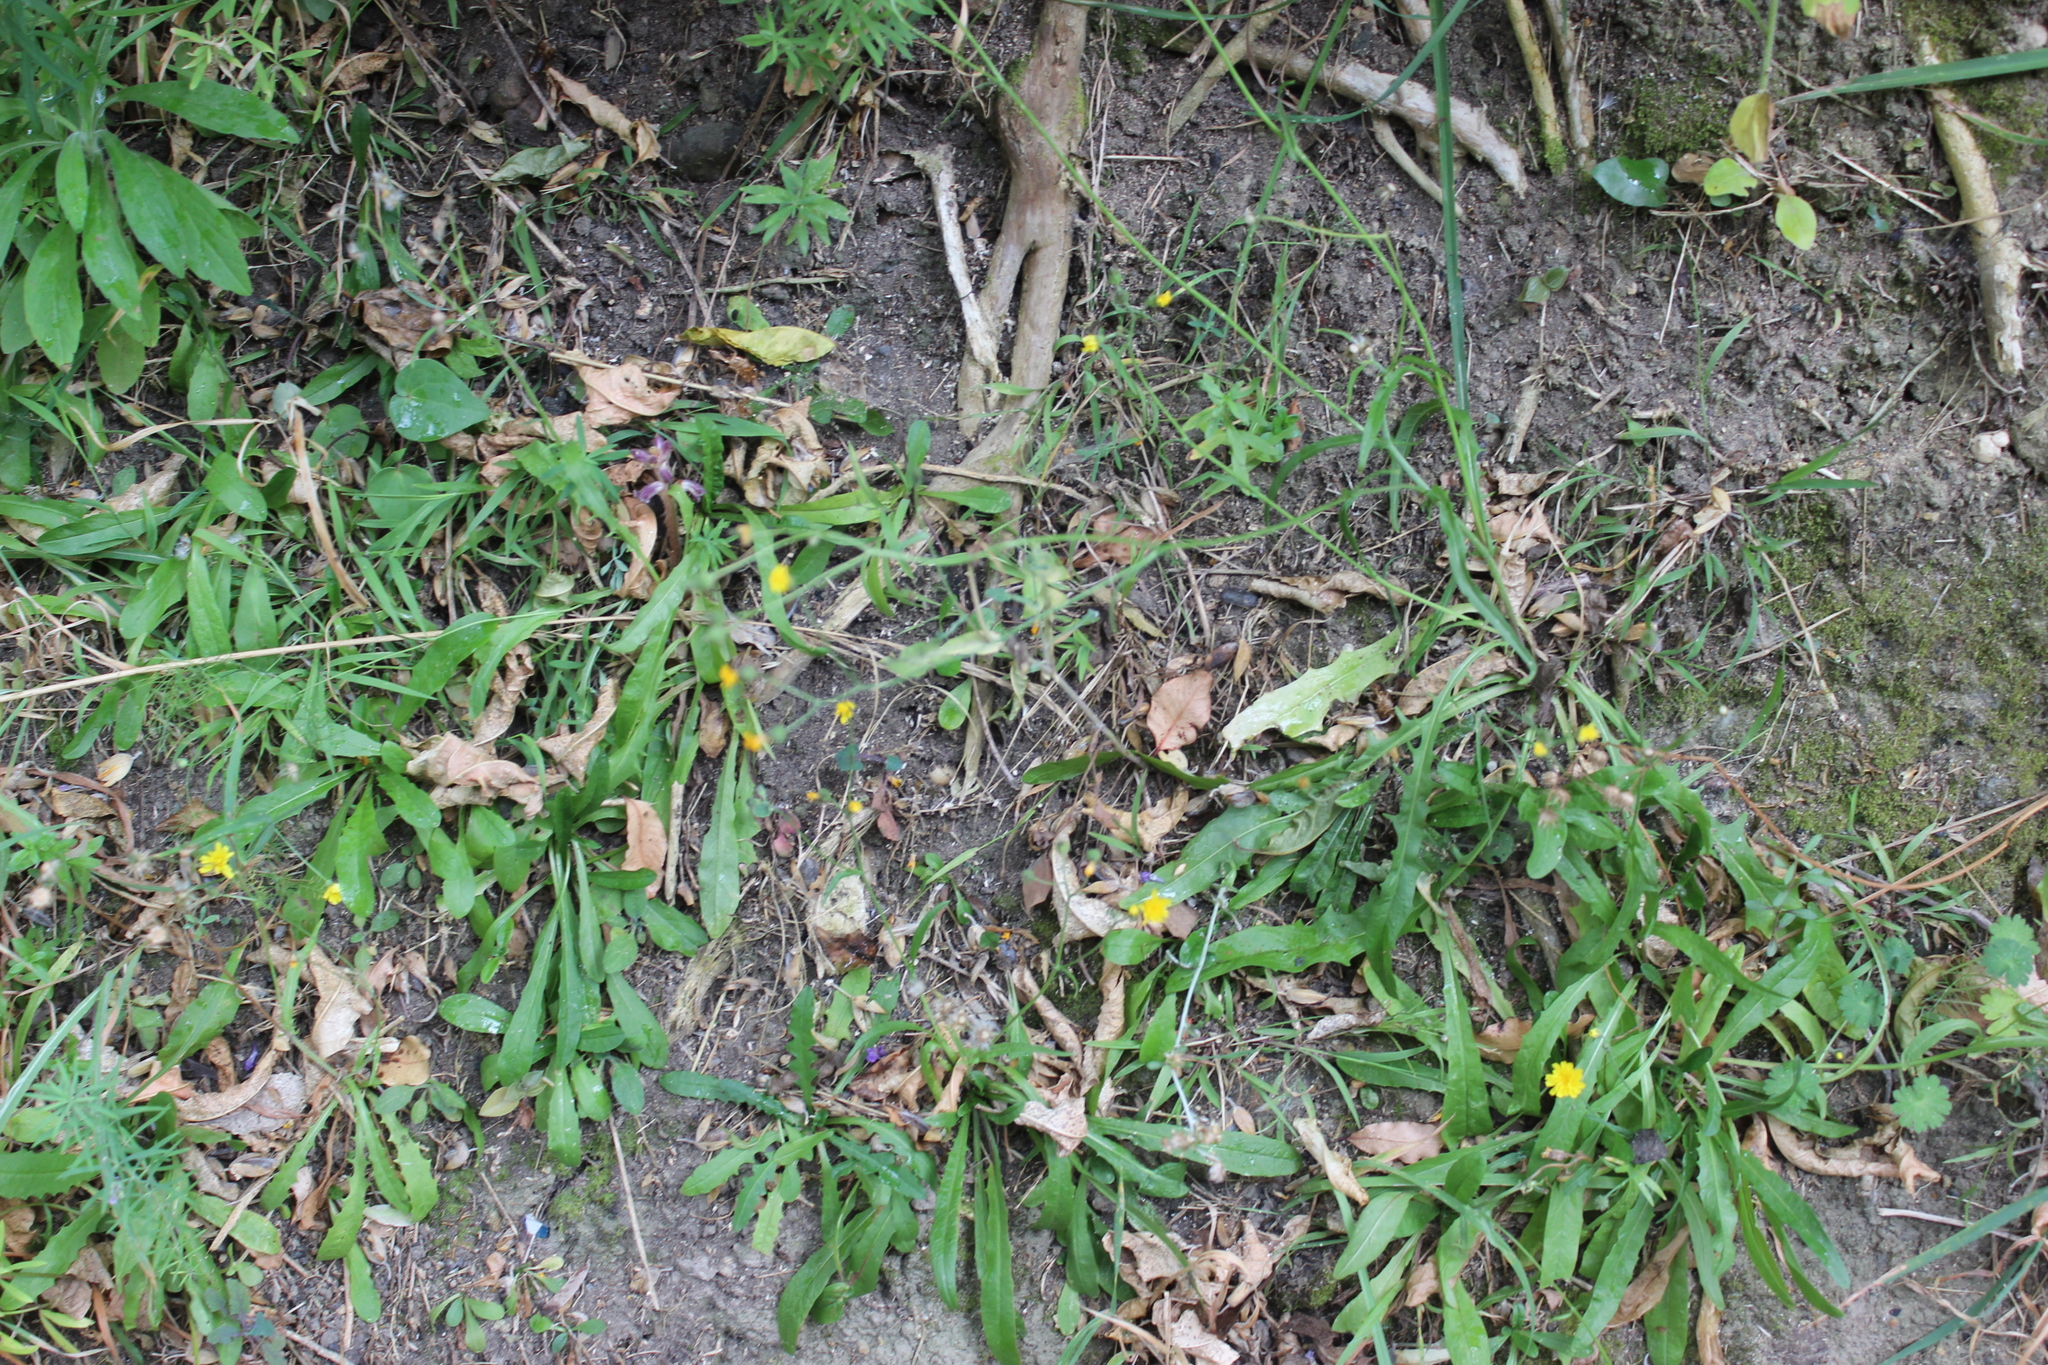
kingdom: Plantae
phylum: Tracheophyta
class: Magnoliopsida
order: Lamiales
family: Orobanchaceae
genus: Orobanche
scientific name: Orobanche minor
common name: Common broomrape
